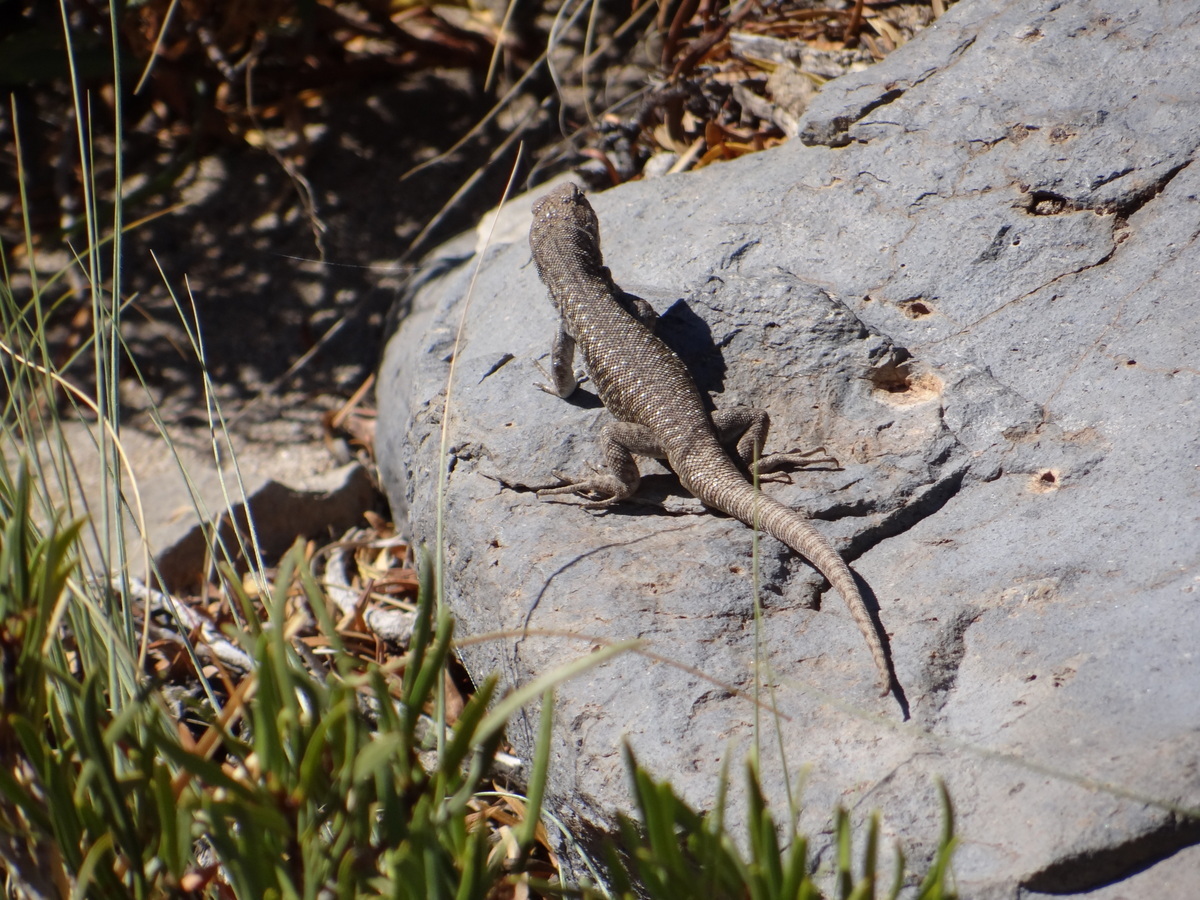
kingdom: Animalia
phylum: Chordata
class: Squamata
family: Liolaemidae
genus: Liolaemus
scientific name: Liolaemus smaug
